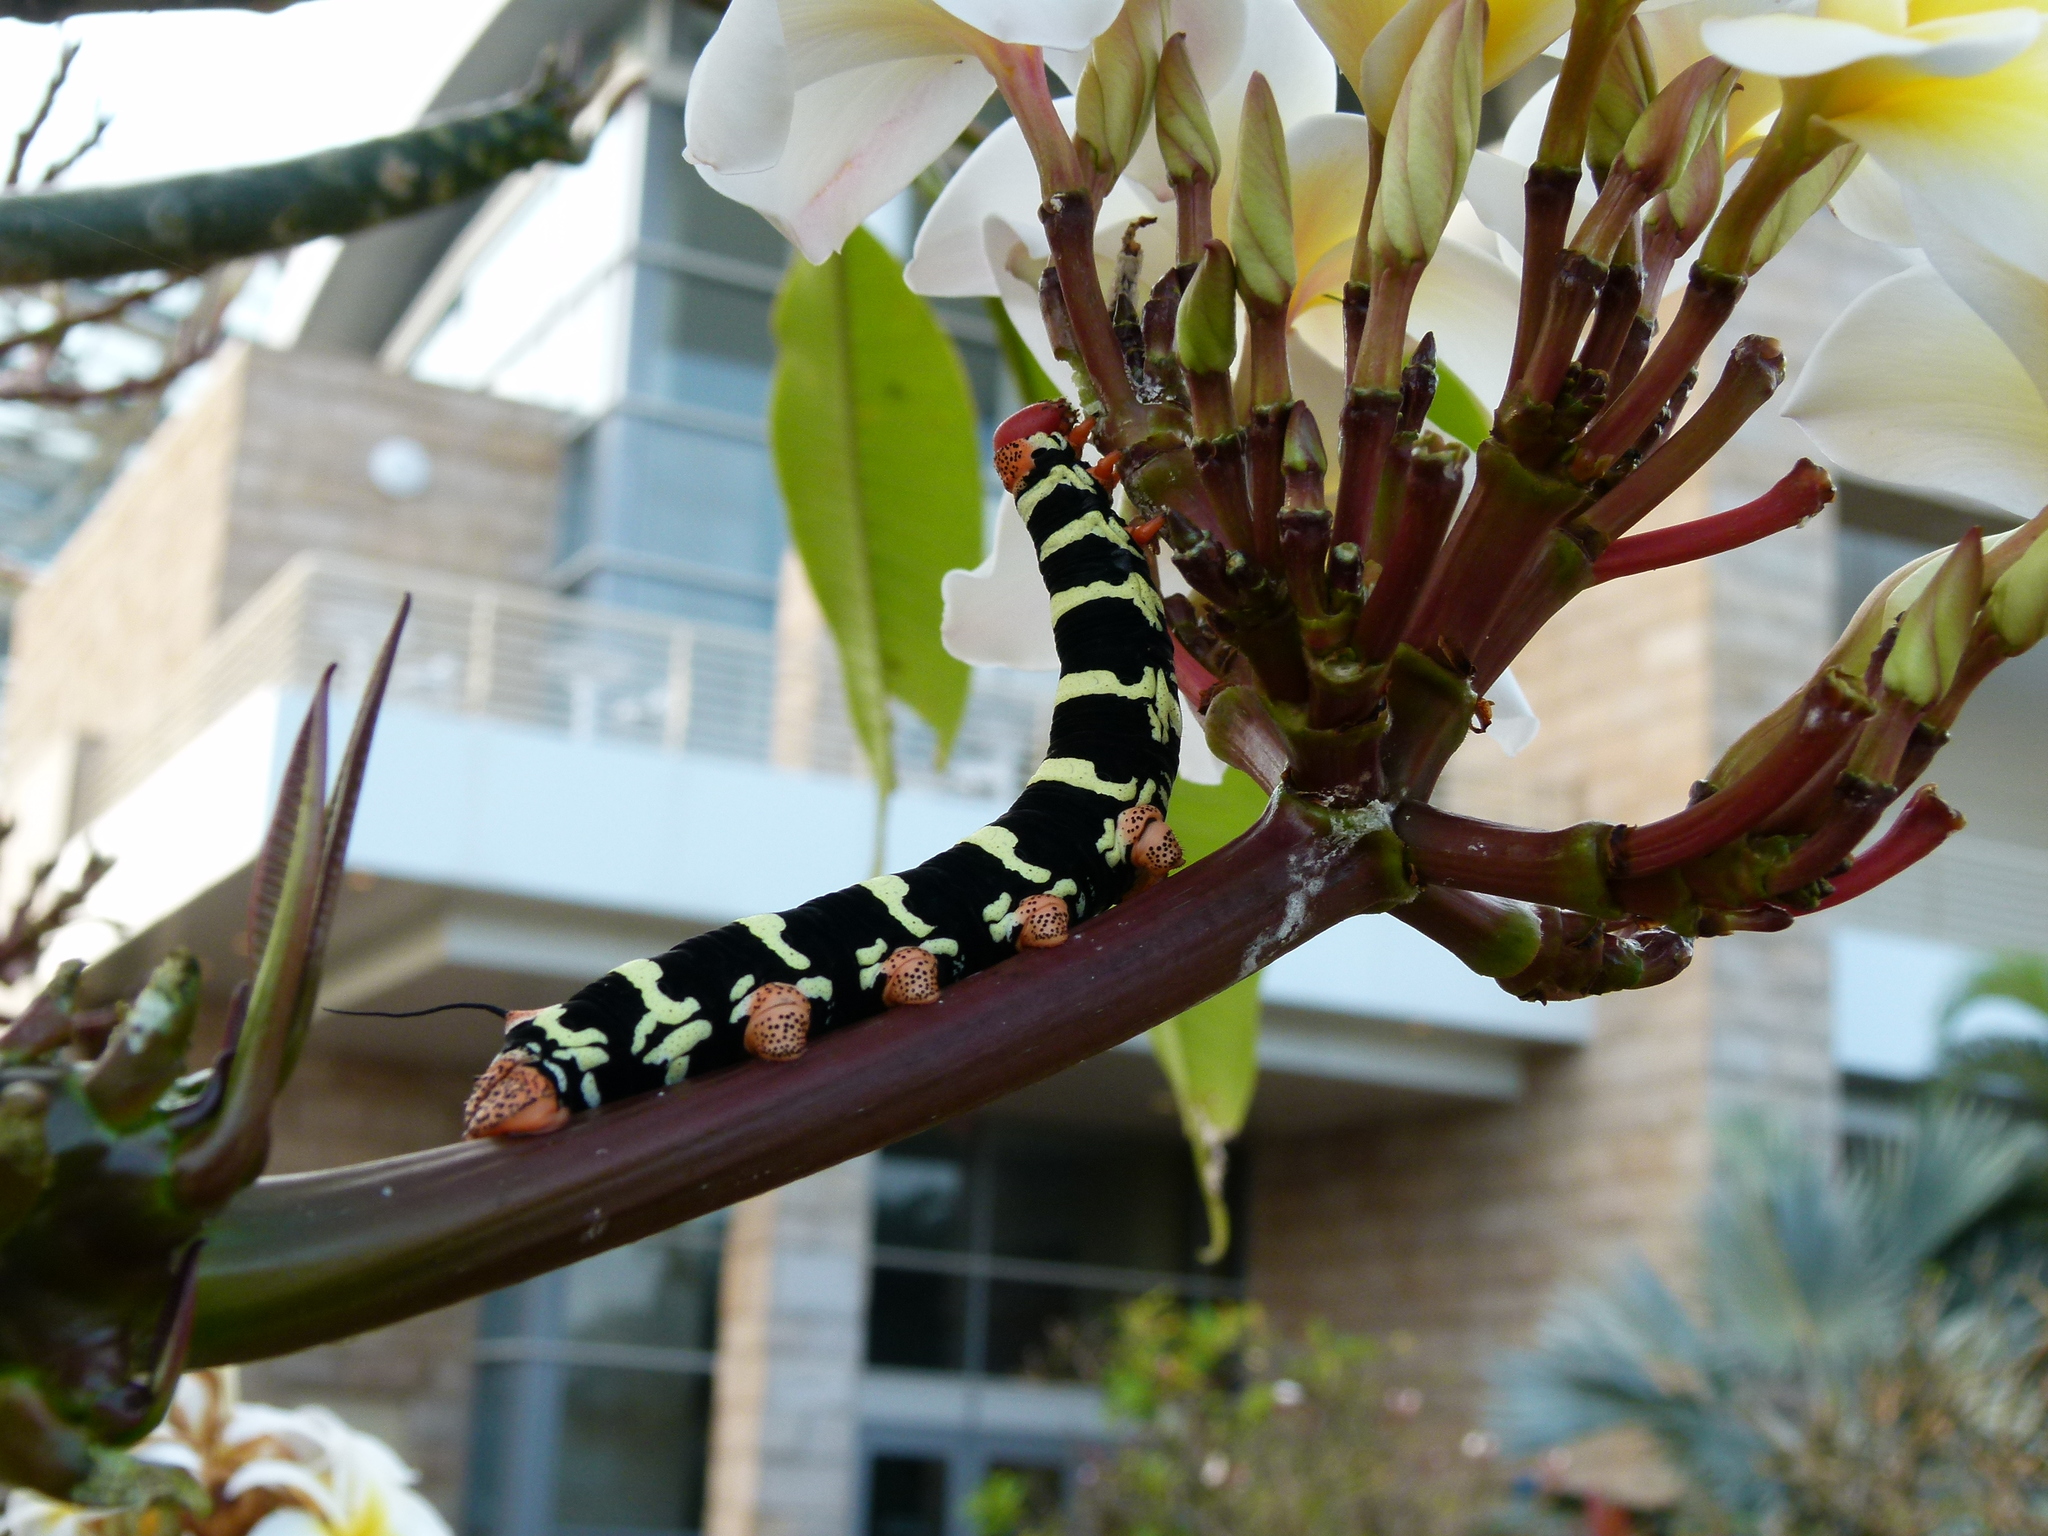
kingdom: Animalia
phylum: Arthropoda
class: Insecta
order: Lepidoptera
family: Sphingidae
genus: Pseudosphinx
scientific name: Pseudosphinx tetrio
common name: Tetrio sphinx
